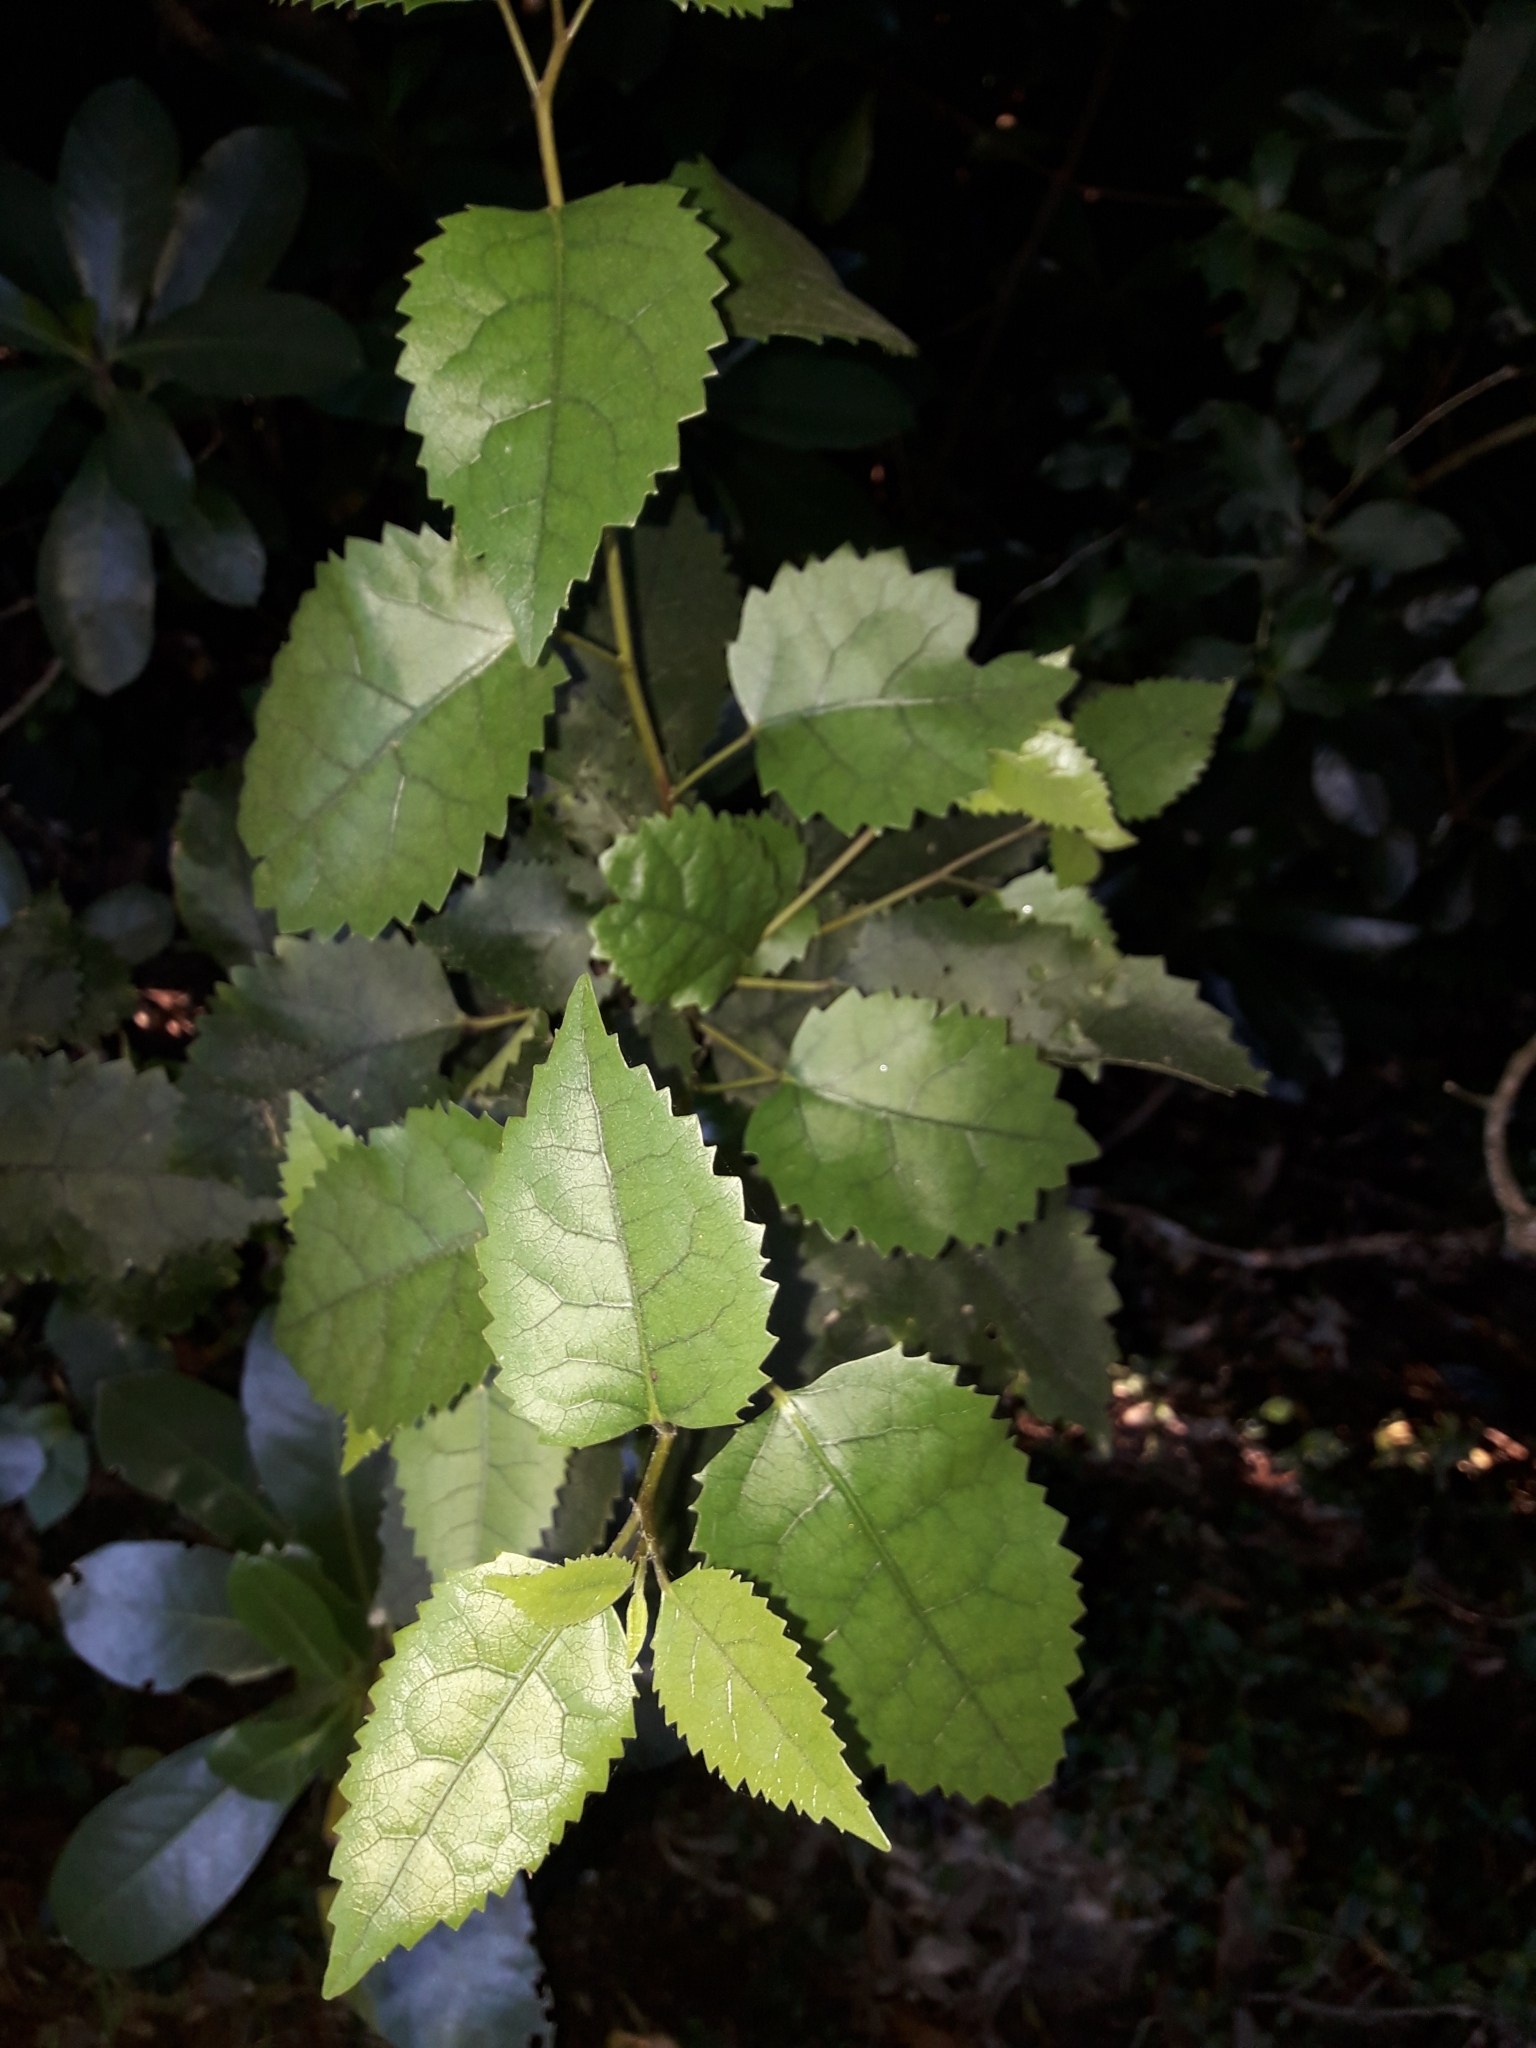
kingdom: Plantae
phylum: Tracheophyta
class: Magnoliopsida
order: Malvales
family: Malvaceae
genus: Hoheria
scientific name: Hoheria populnea
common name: Lacebark
